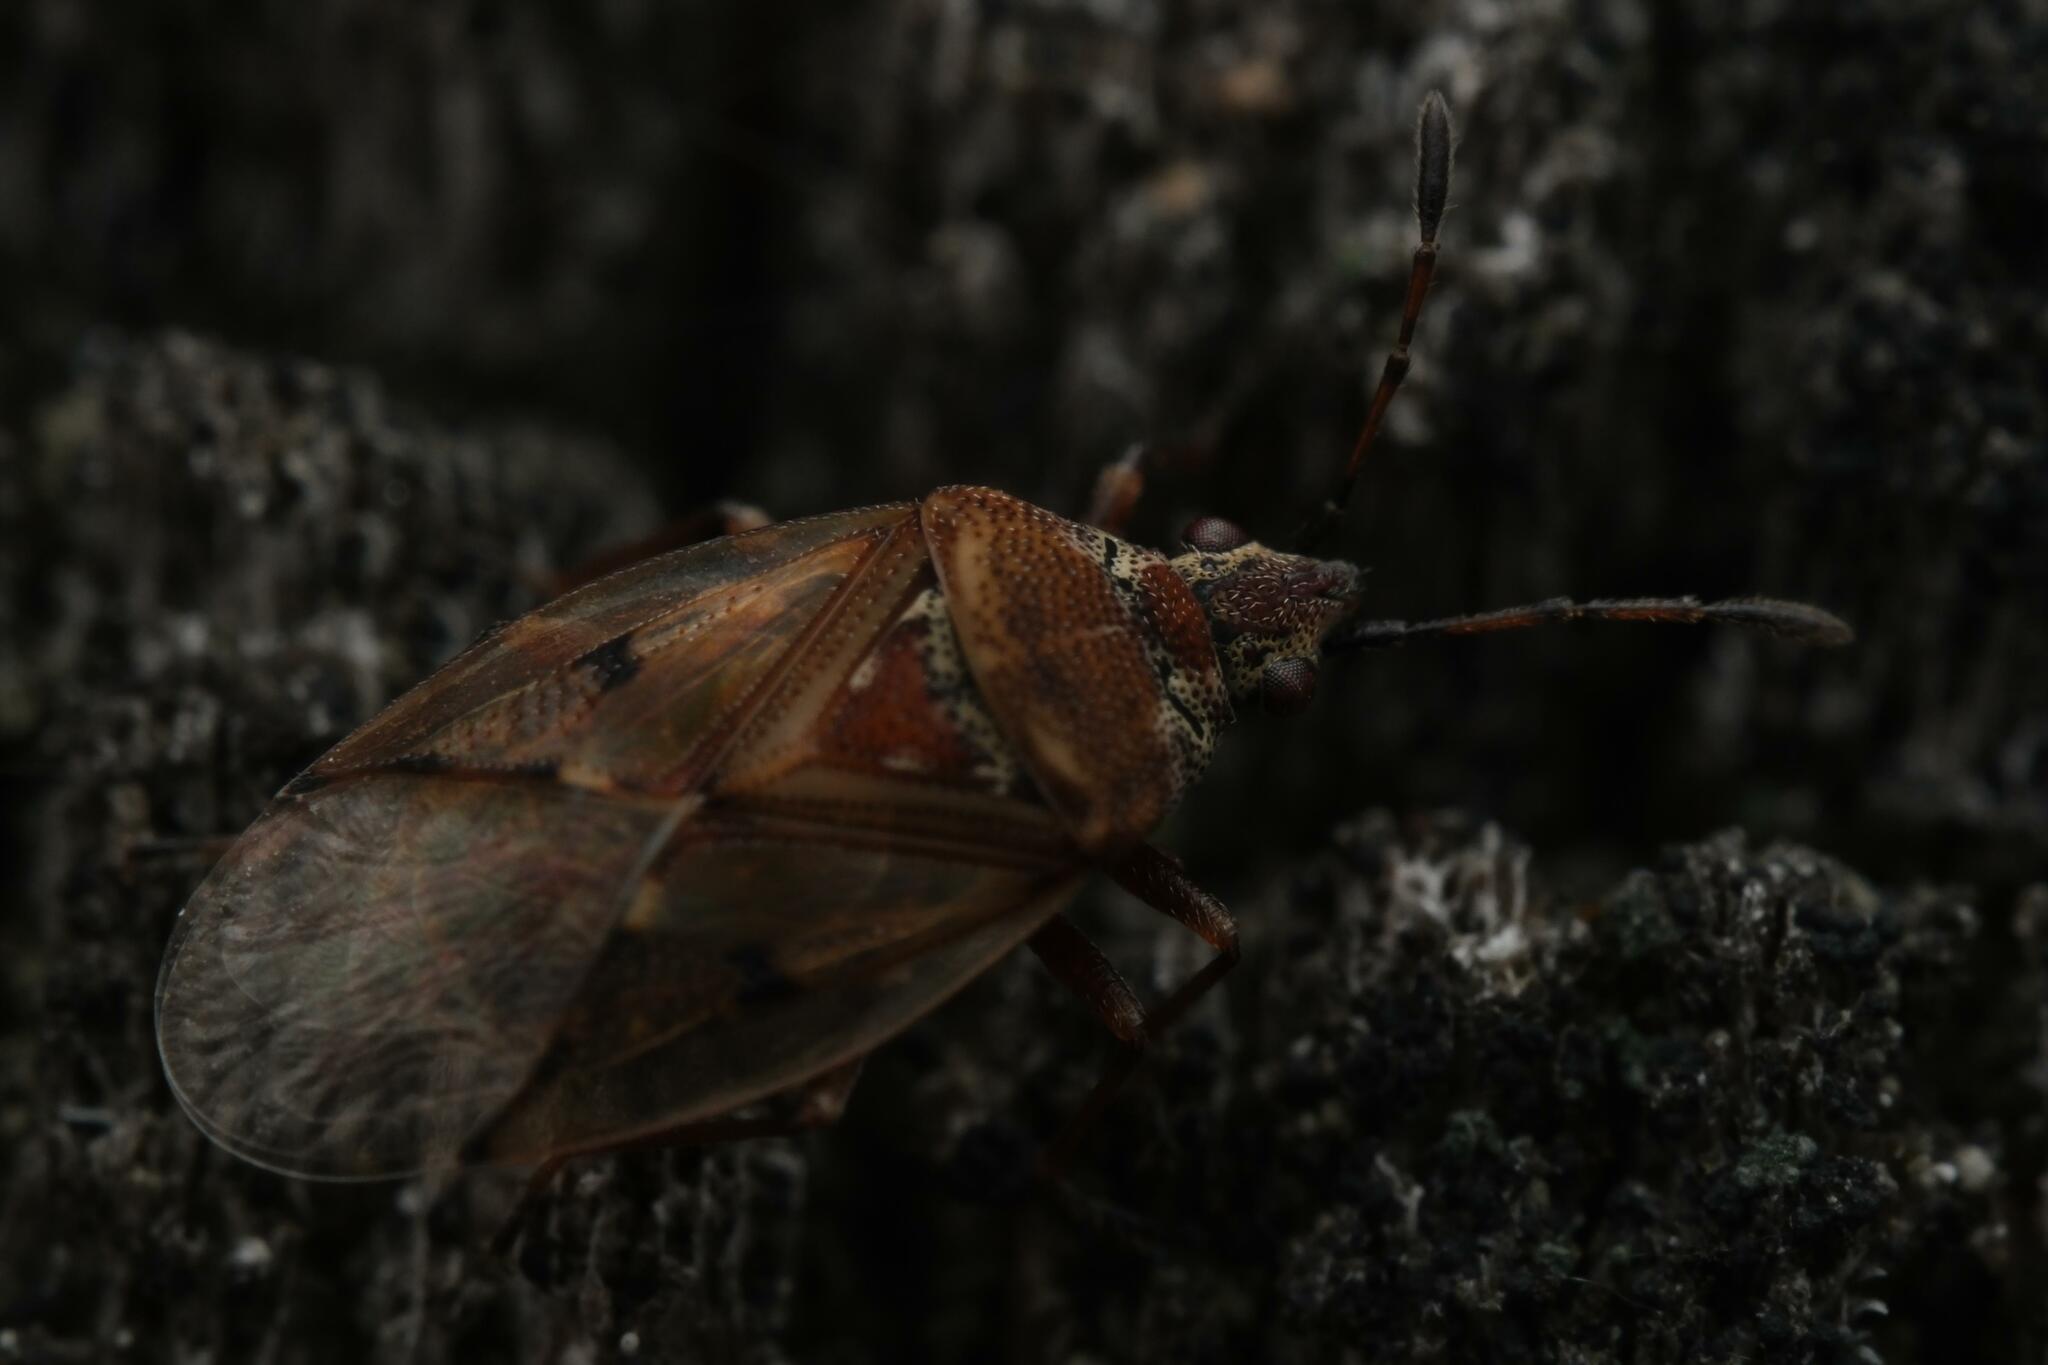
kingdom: Animalia
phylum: Arthropoda
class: Insecta
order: Hemiptera
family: Lygaeidae
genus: Kleidocerys
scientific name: Kleidocerys resedae
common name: Birch catkin bug
